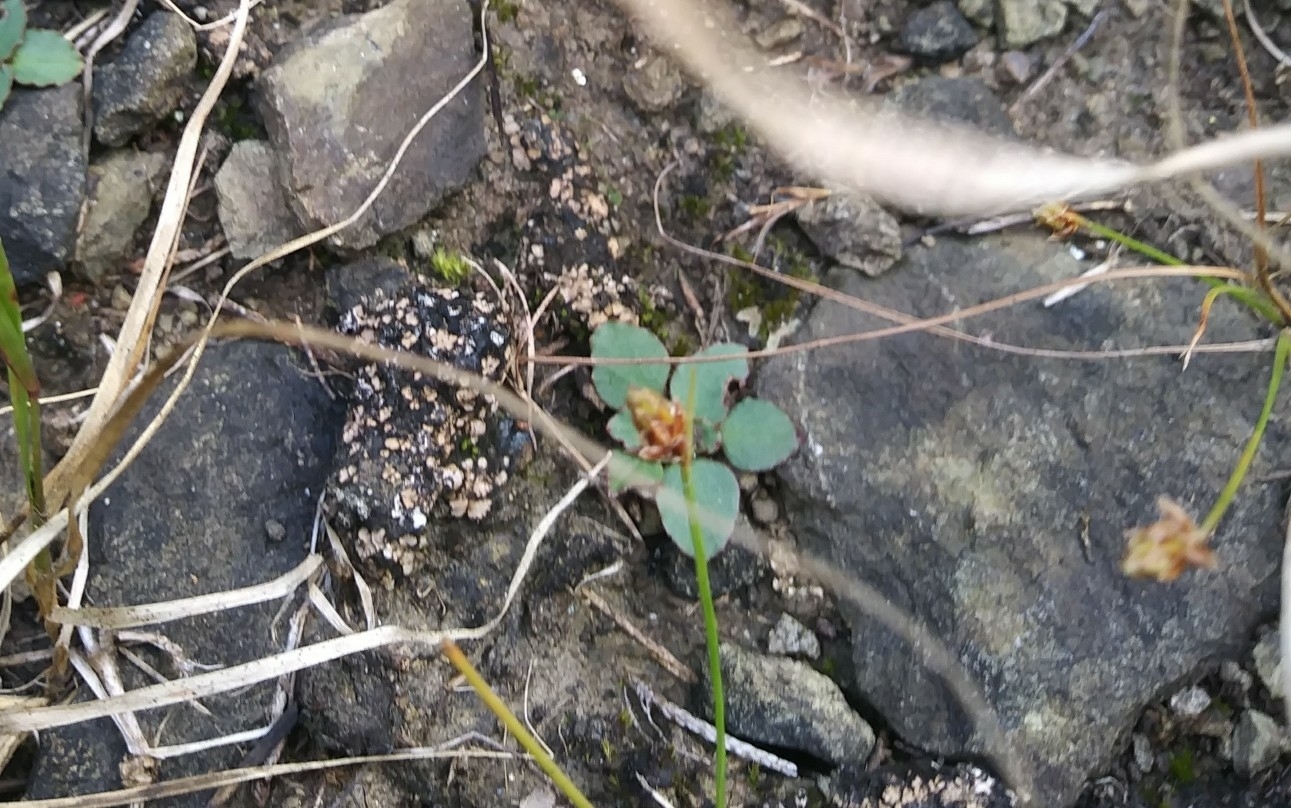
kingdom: Plantae
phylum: Tracheophyta
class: Liliopsida
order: Poales
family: Cyperaceae
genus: Fimbristylis
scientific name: Fimbristylis annua
